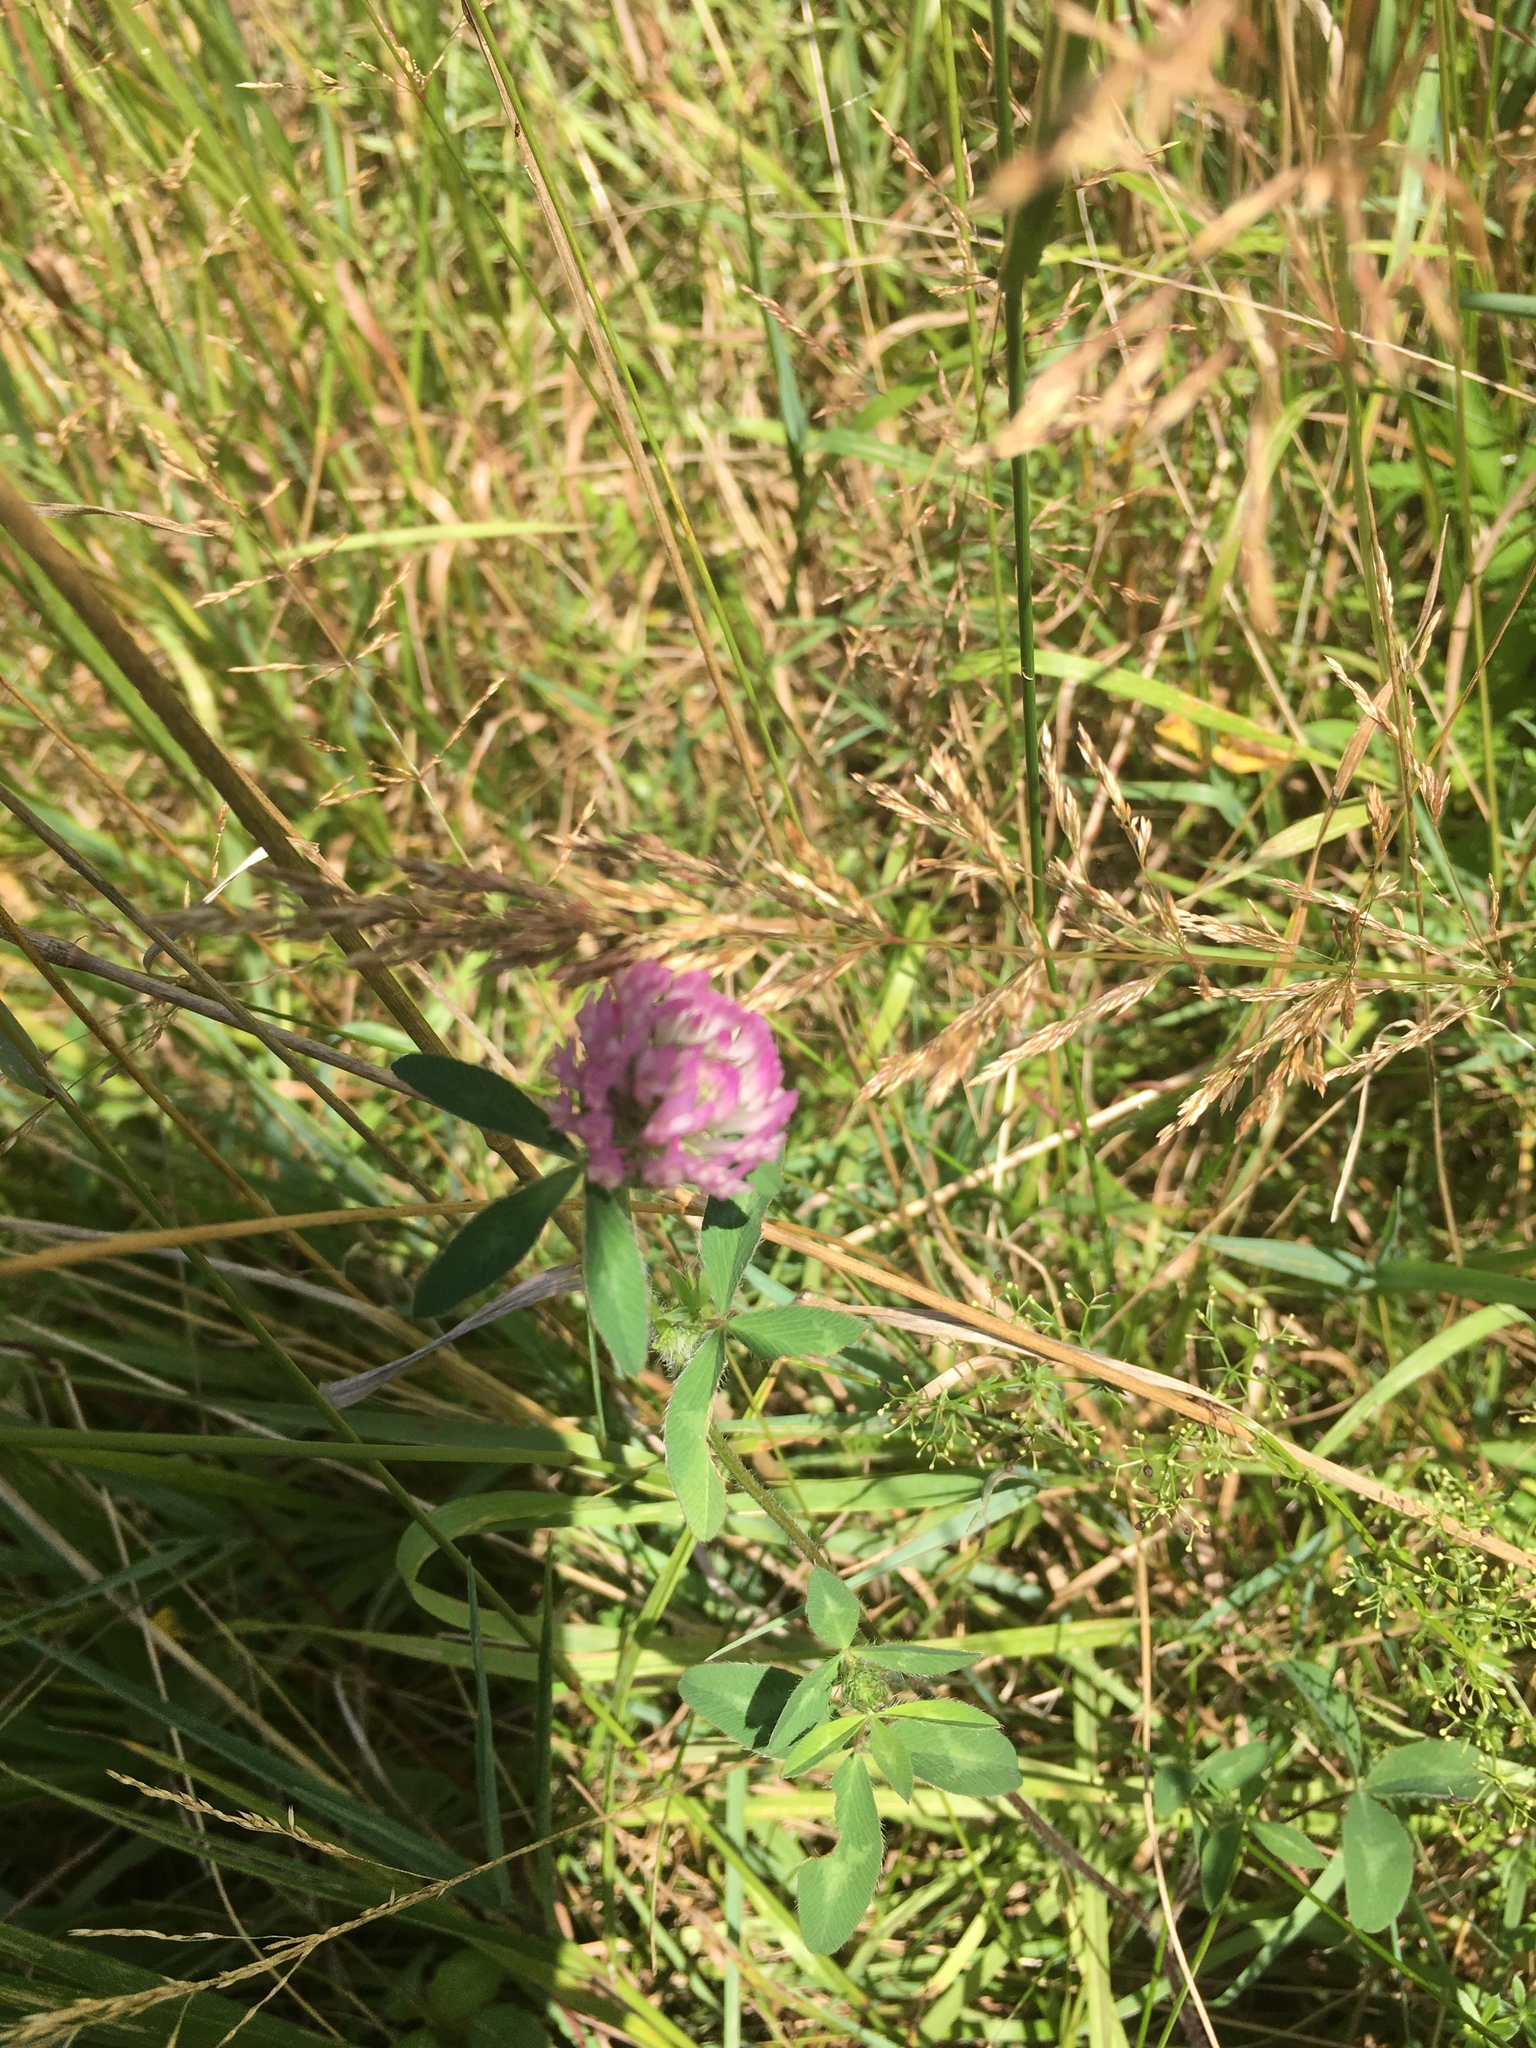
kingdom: Plantae
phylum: Tracheophyta
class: Magnoliopsida
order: Fabales
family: Fabaceae
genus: Trifolium
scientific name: Trifolium pratense
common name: Red clover
